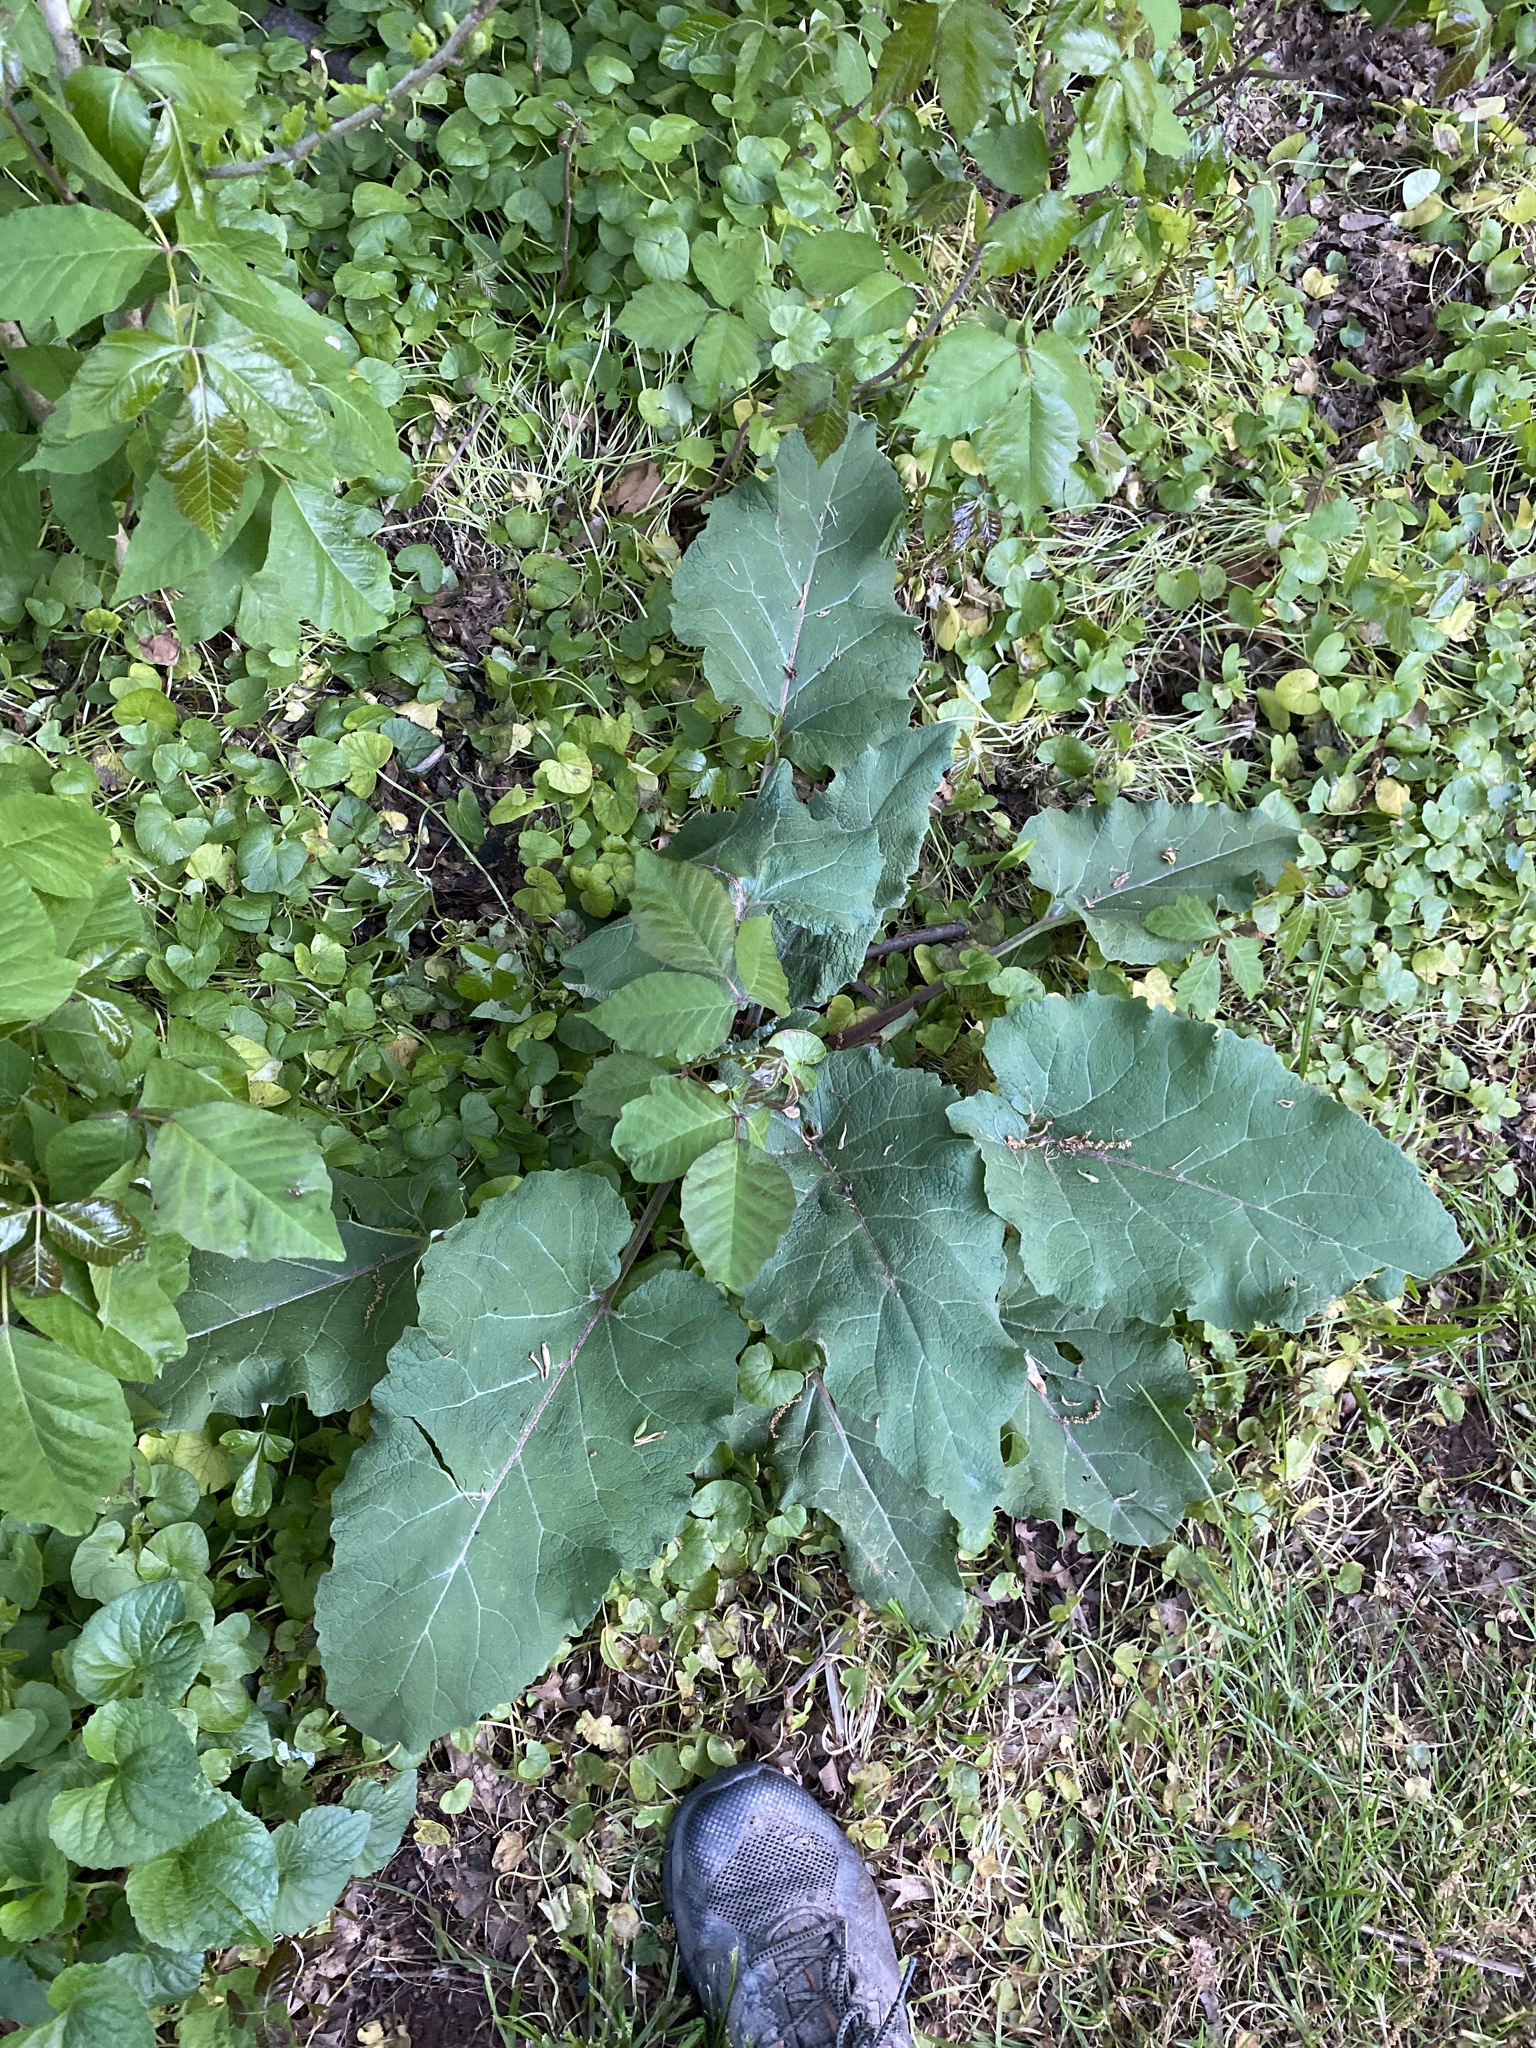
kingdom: Plantae
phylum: Tracheophyta
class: Magnoliopsida
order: Asterales
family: Asteraceae
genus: Arctium
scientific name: Arctium
